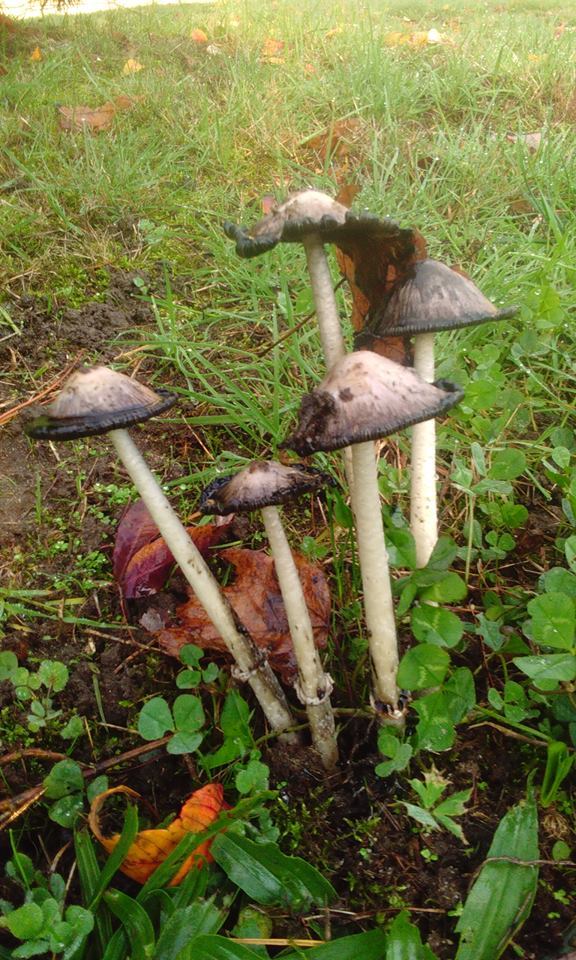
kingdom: Fungi
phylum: Basidiomycota
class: Agaricomycetes
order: Agaricales
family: Agaricaceae
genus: Coprinus
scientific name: Coprinus comatus
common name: Lawyer's wig
